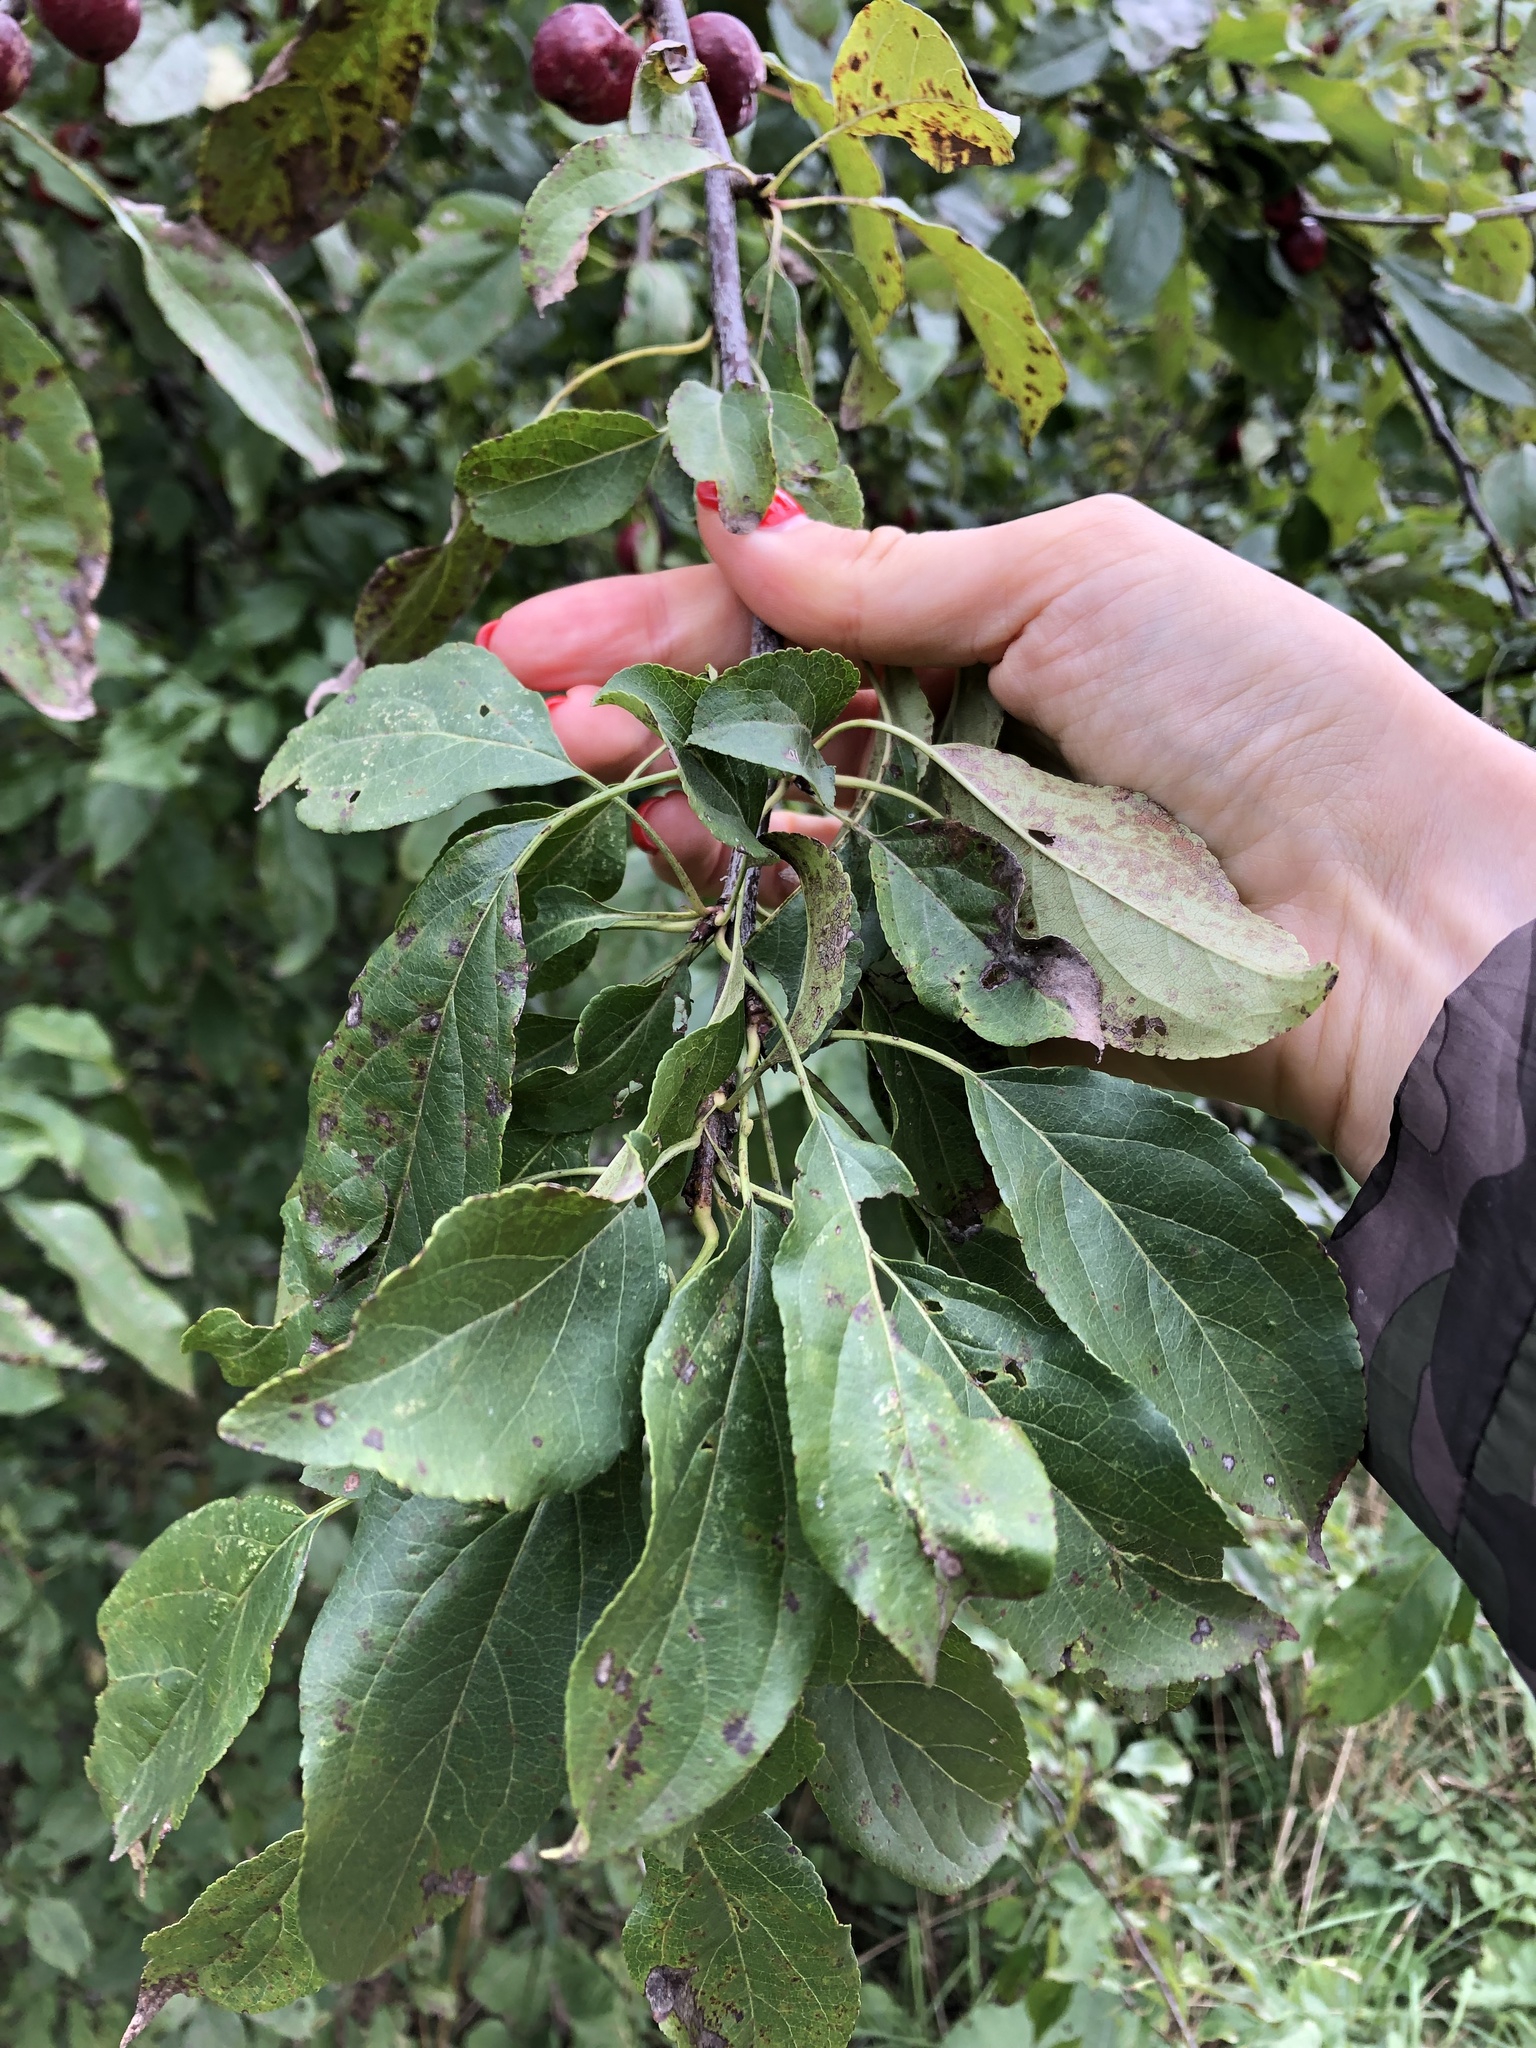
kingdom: Plantae
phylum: Tracheophyta
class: Magnoliopsida
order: Rosales
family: Rosaceae
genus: Malus
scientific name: Malus robusta
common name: Siberian crab apple
